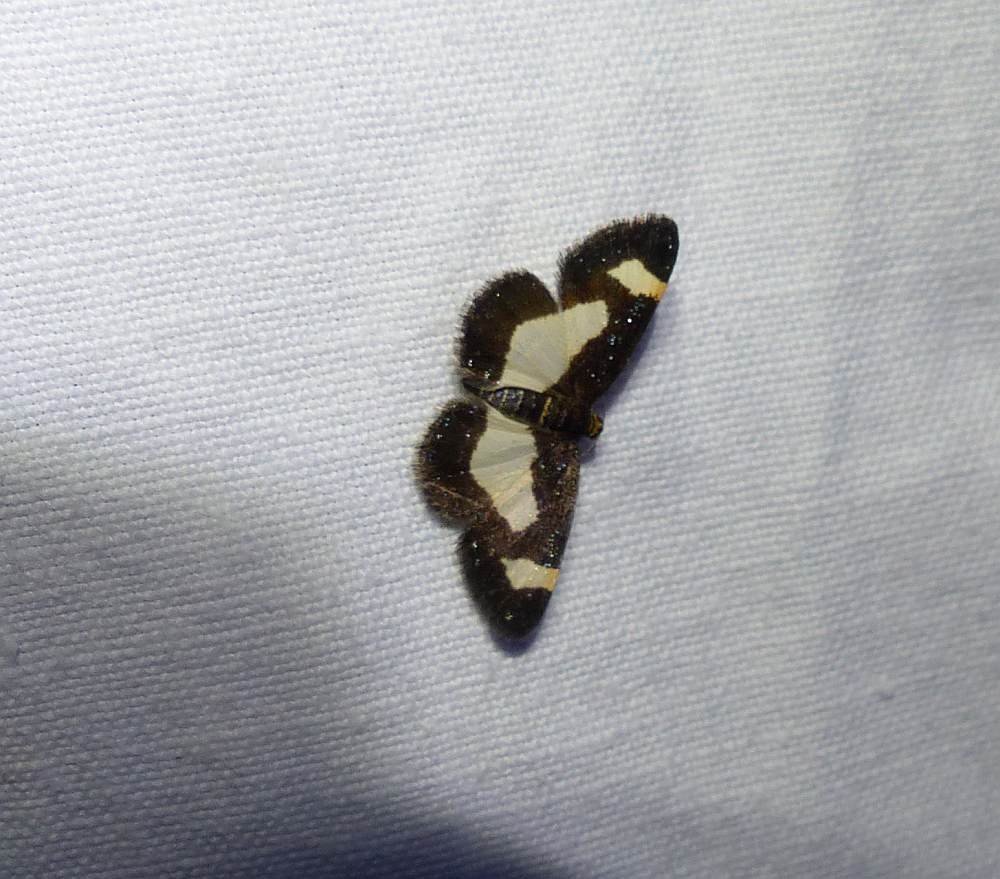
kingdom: Animalia
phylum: Arthropoda
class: Insecta
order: Lepidoptera
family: Geometridae
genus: Heliomata
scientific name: Heliomata cycladata
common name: Common spring moth
